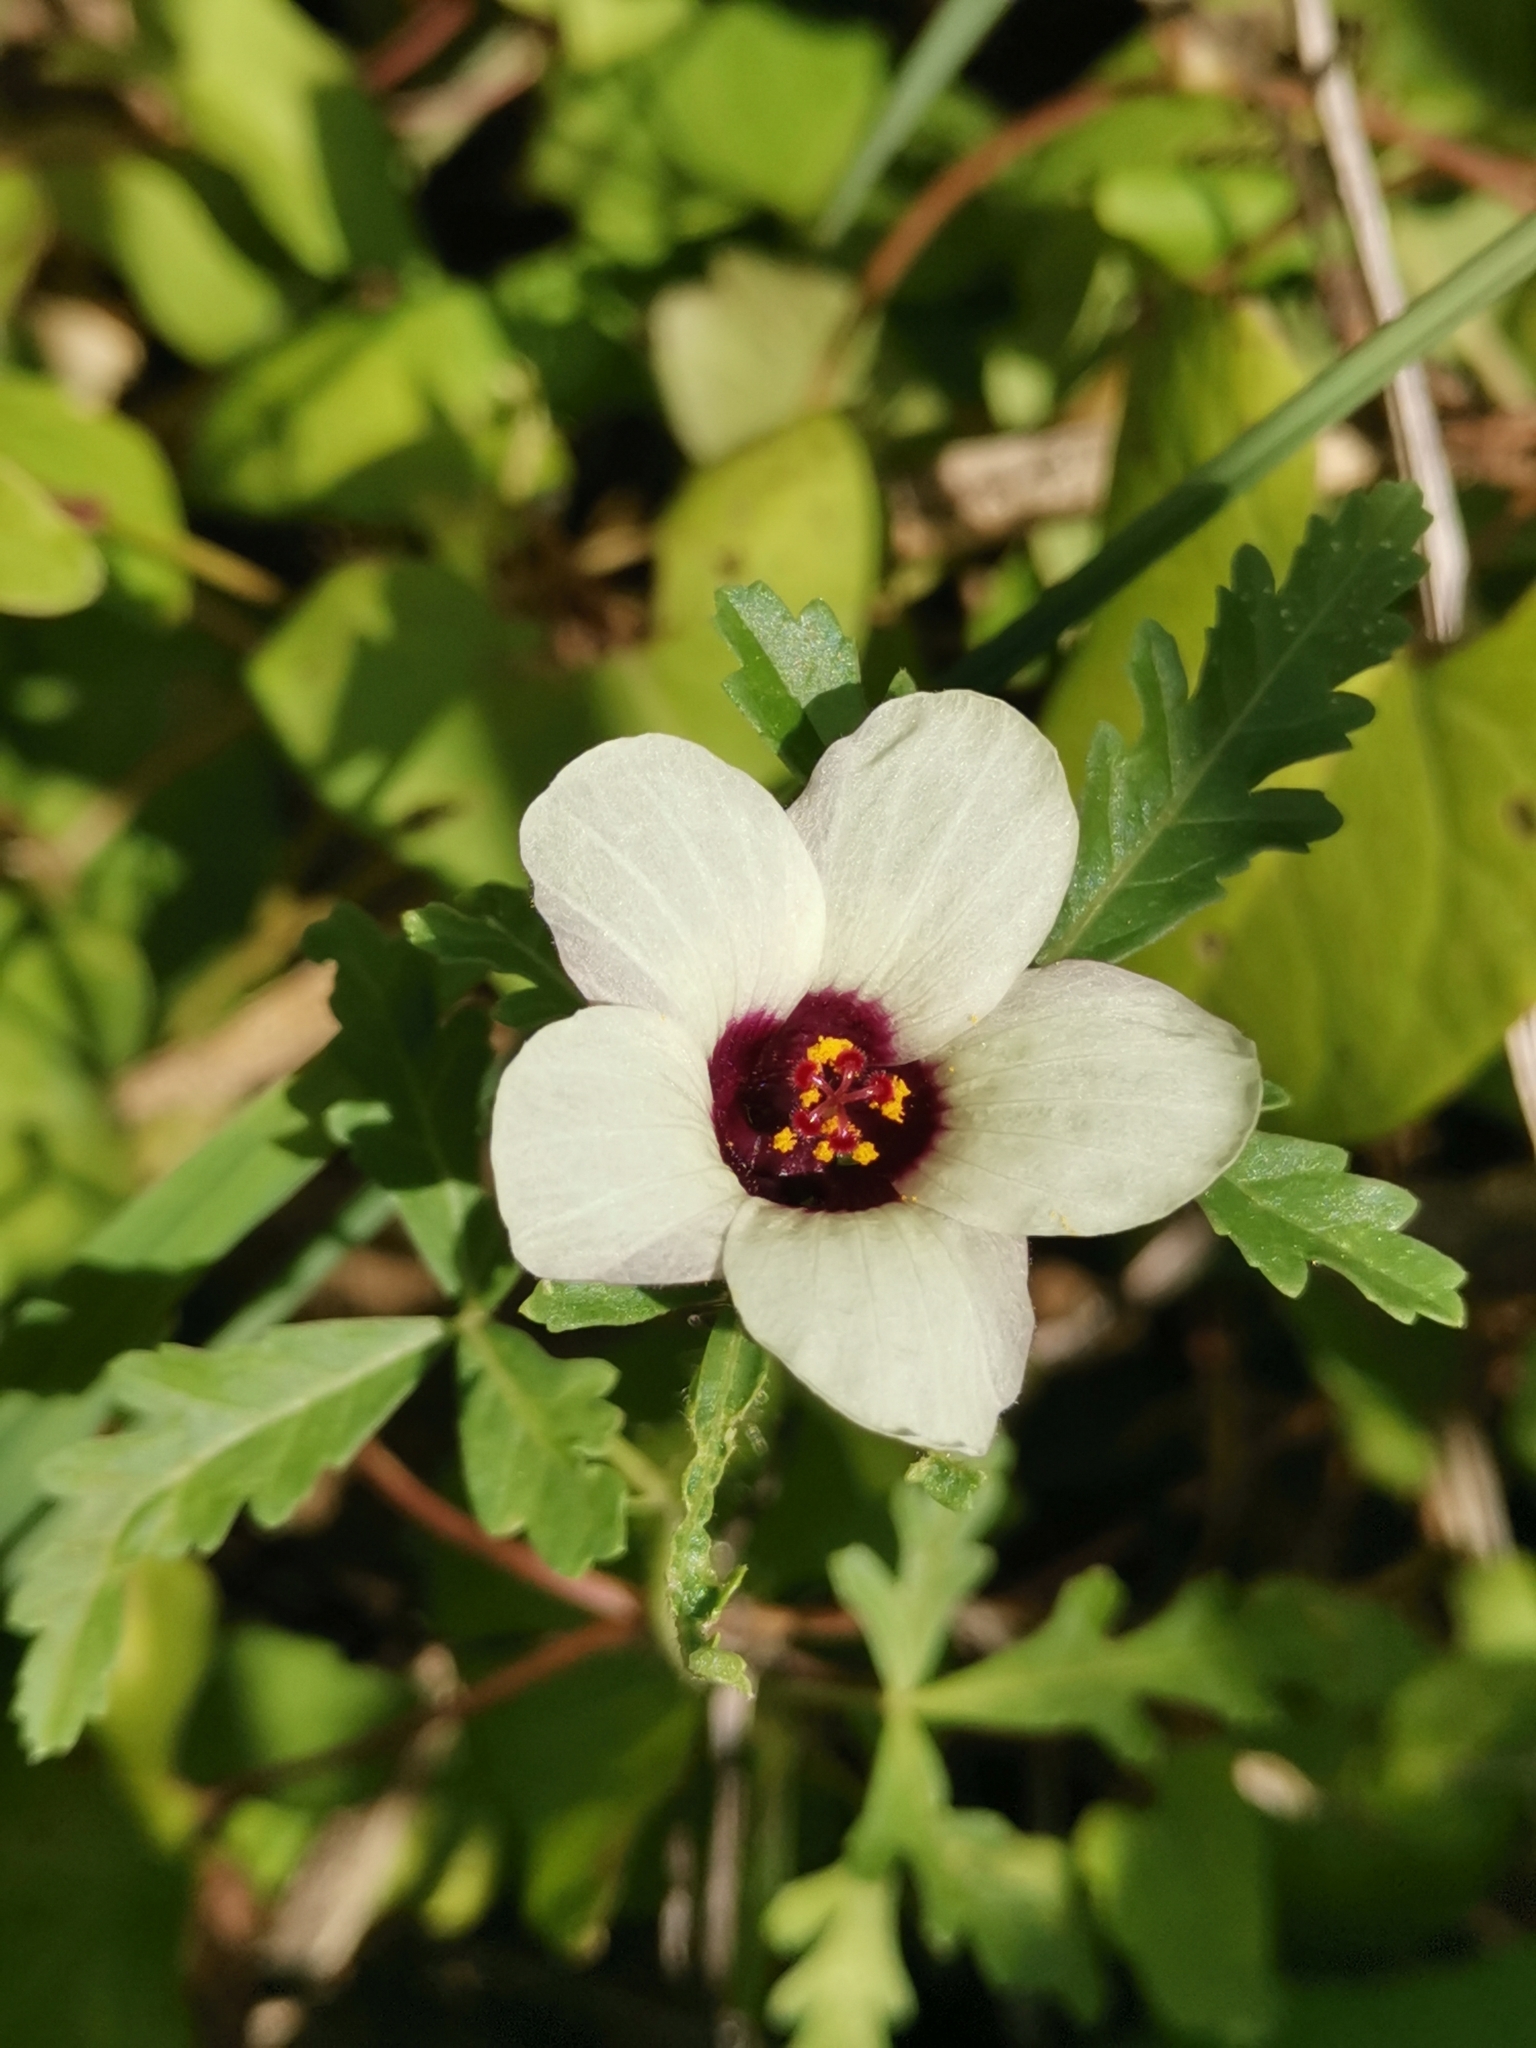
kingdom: Plantae
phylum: Tracheophyta
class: Magnoliopsida
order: Malvales
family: Malvaceae
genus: Hibiscus
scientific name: Hibiscus trionum
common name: Bladder ketmia
